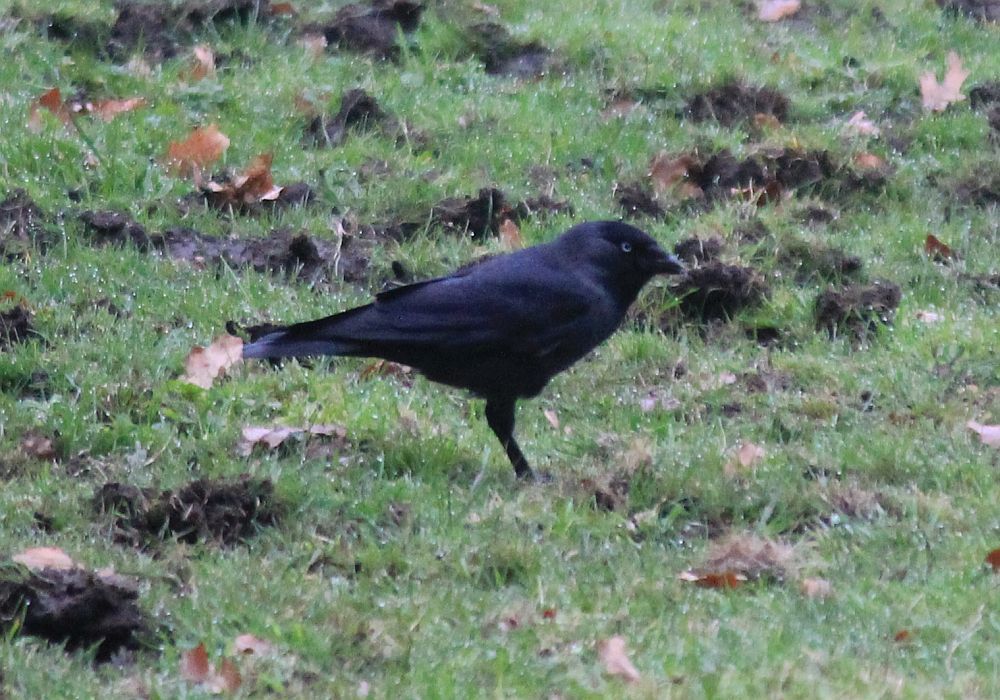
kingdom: Animalia
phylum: Chordata
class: Aves
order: Passeriformes
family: Corvidae
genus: Coloeus
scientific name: Coloeus monedula
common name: Western jackdaw
